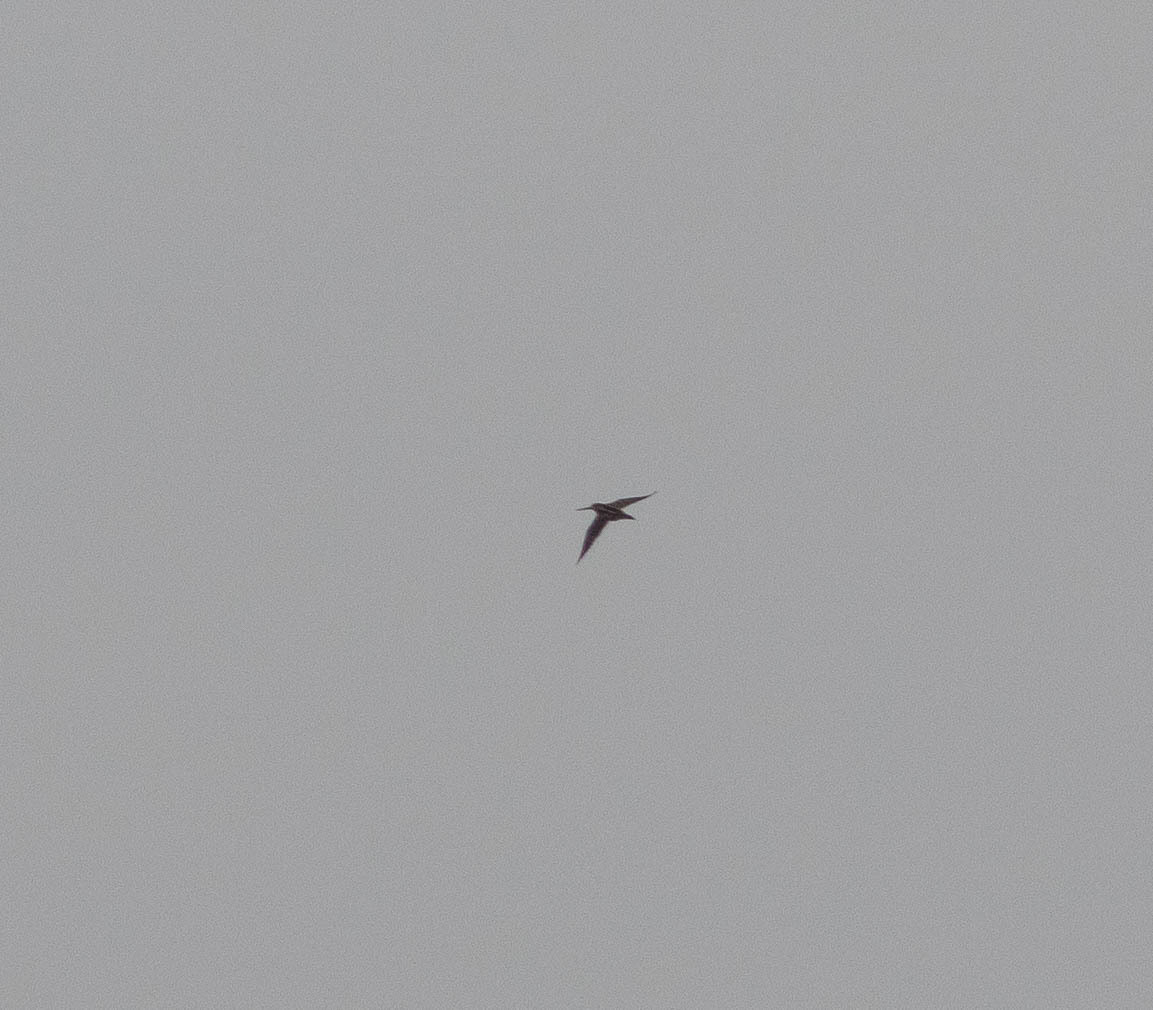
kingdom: Animalia
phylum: Chordata
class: Aves
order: Charadriiformes
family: Scolopacidae
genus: Gallinago
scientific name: Gallinago delicata
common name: Wilson's snipe
